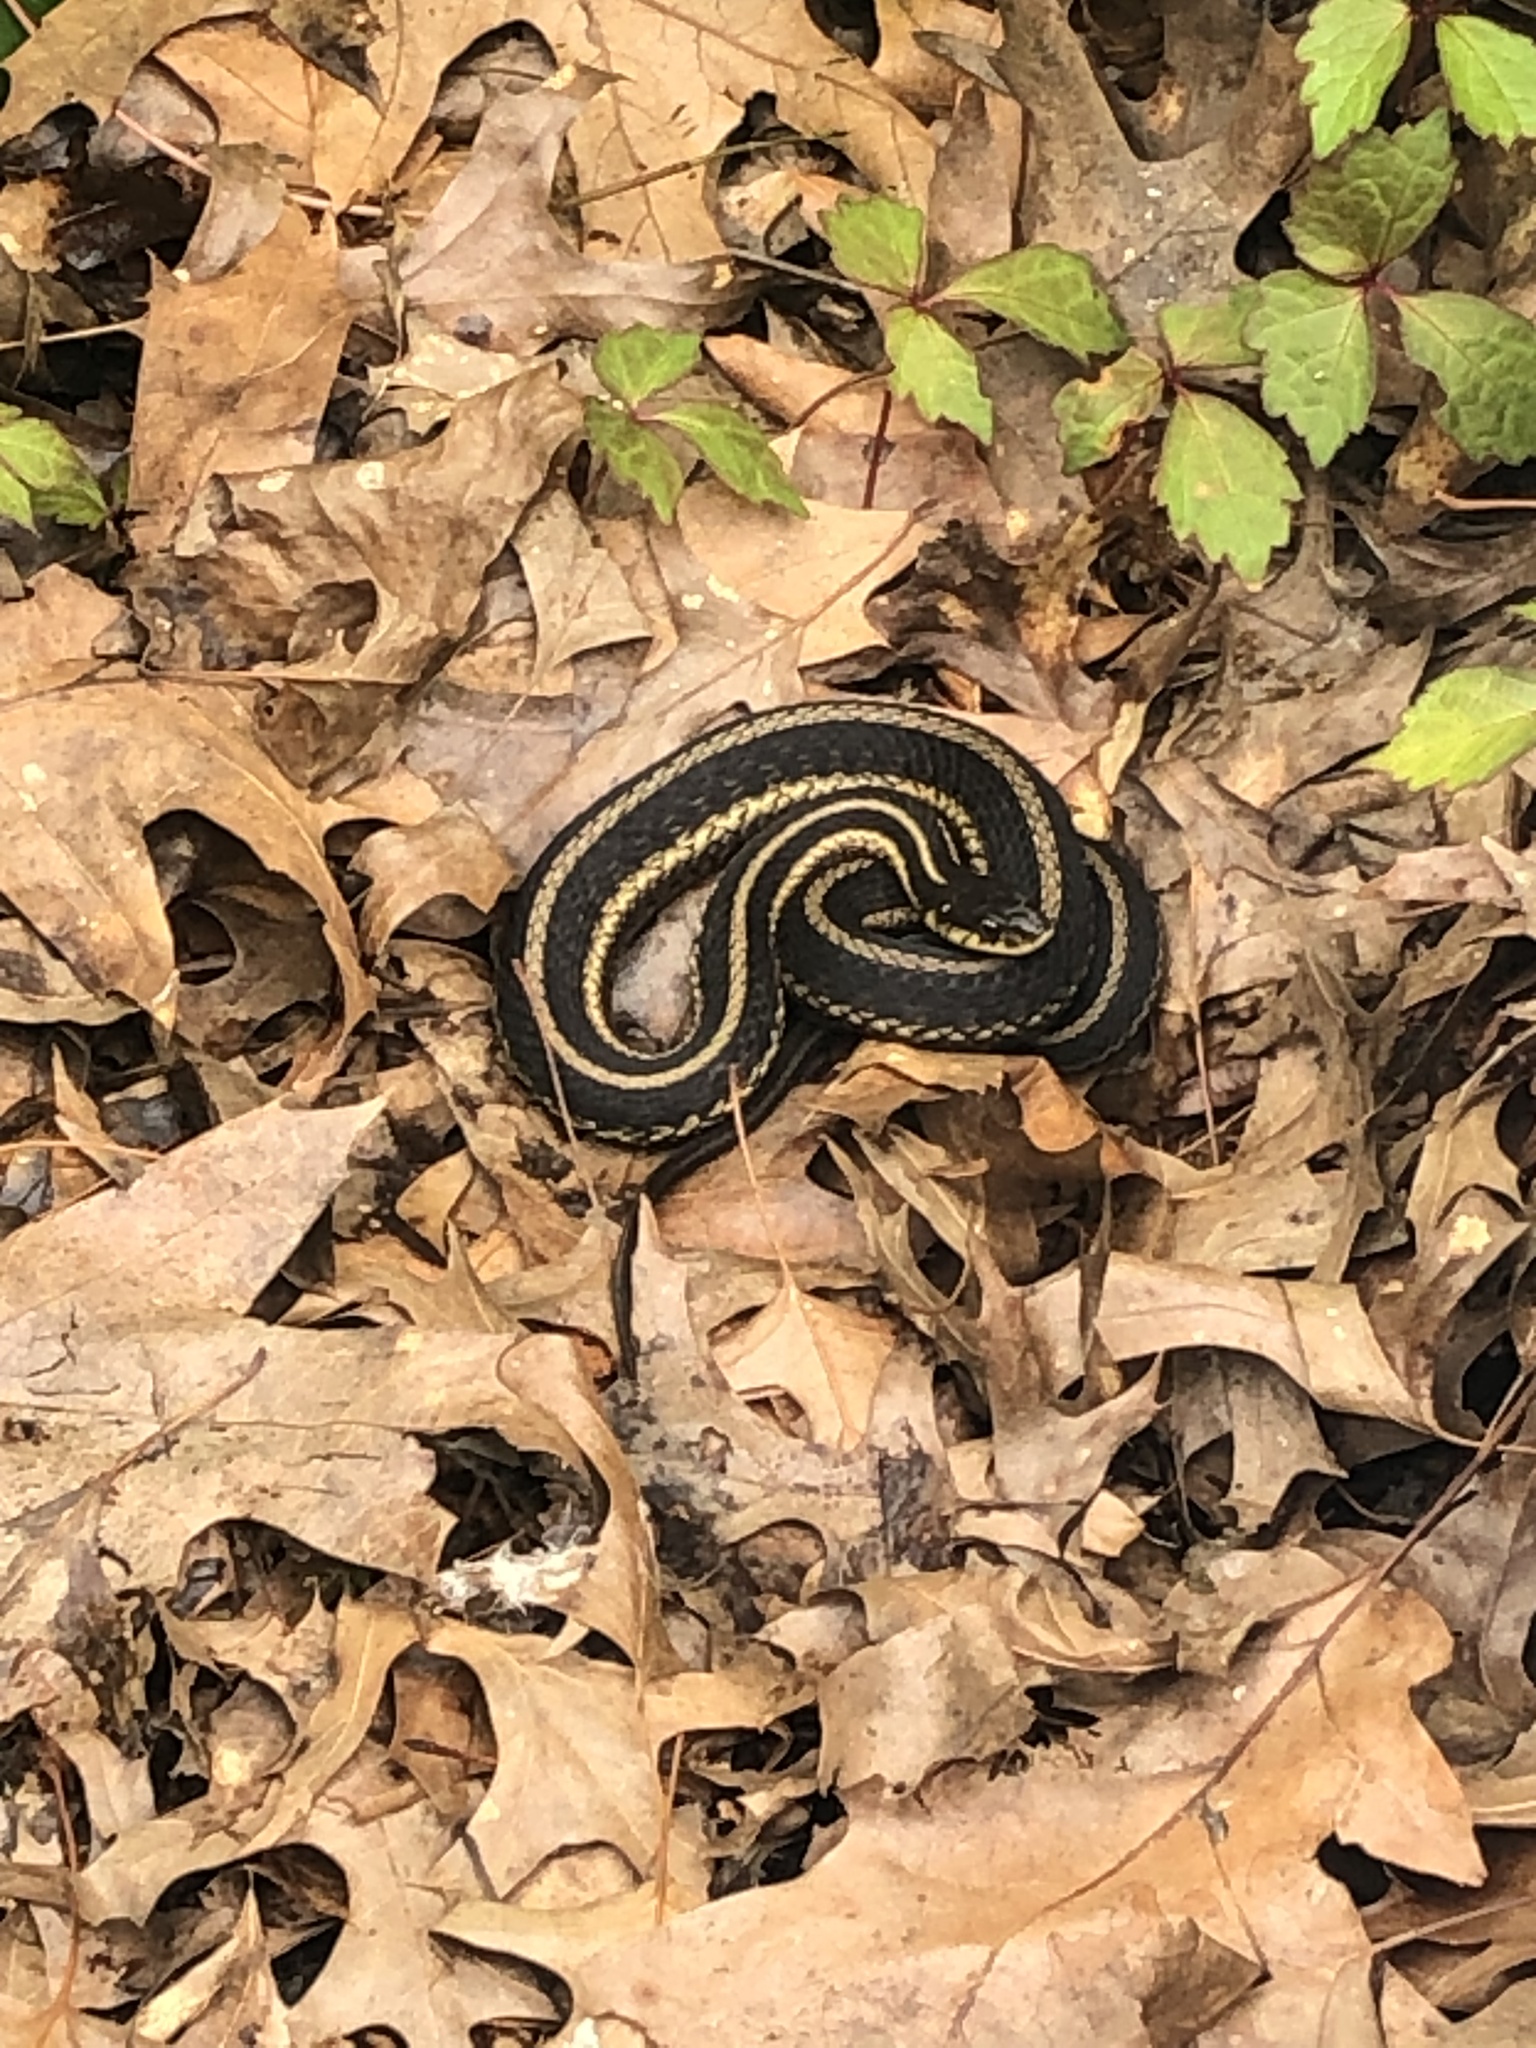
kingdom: Animalia
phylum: Chordata
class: Squamata
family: Colubridae
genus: Thamnophis
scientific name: Thamnophis sirtalis
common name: Common garter snake
